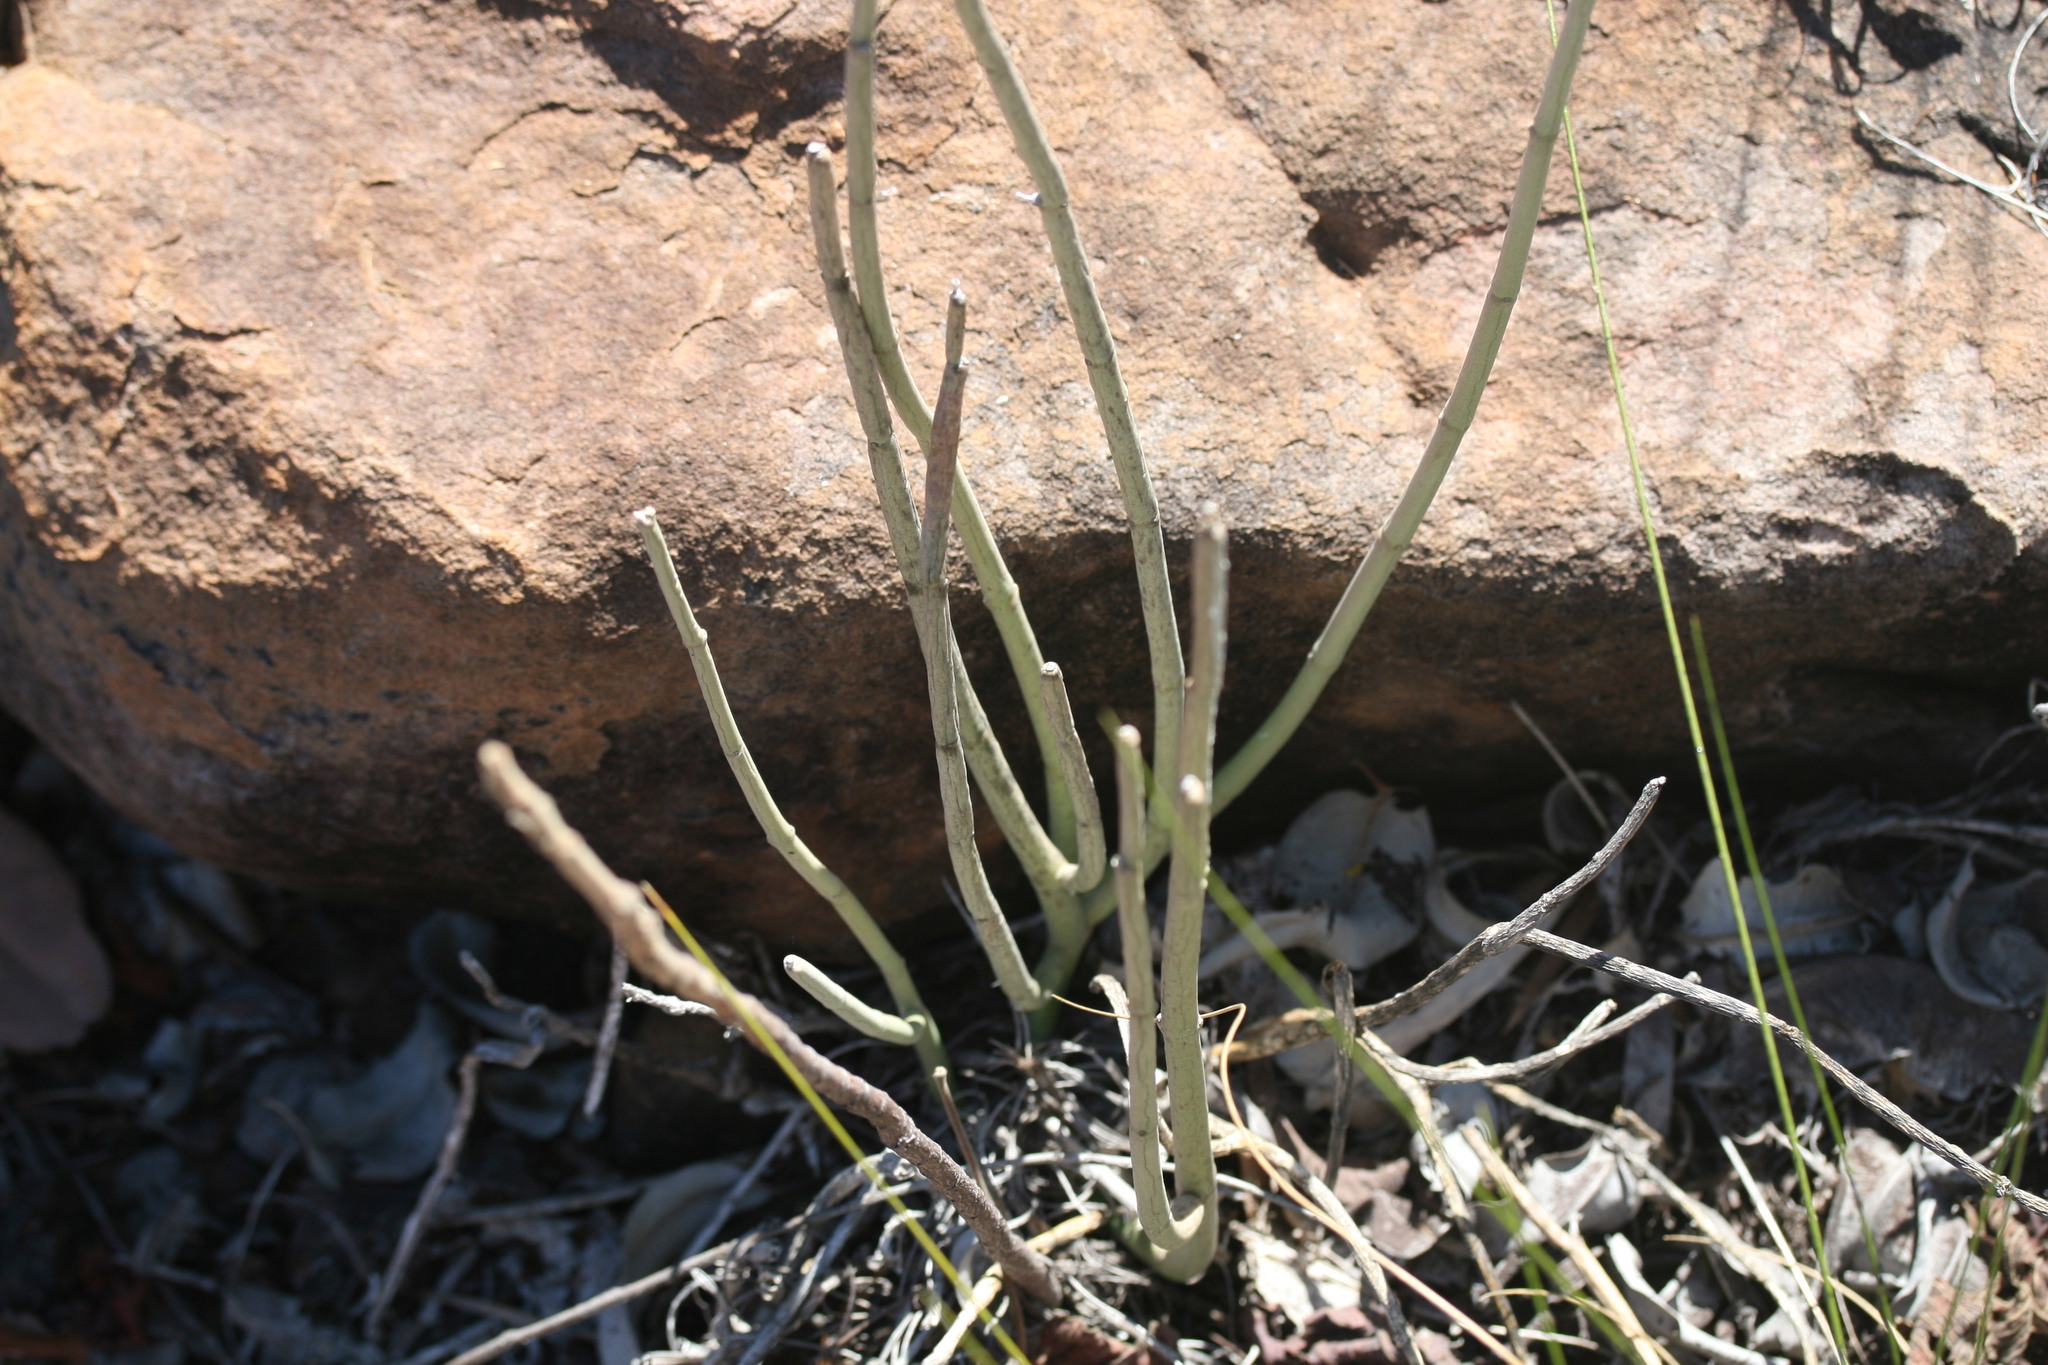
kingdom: Plantae
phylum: Tracheophyta
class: Magnoliopsida
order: Gentianales
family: Apocynaceae
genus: Cynanchum
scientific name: Cynanchum viminale
